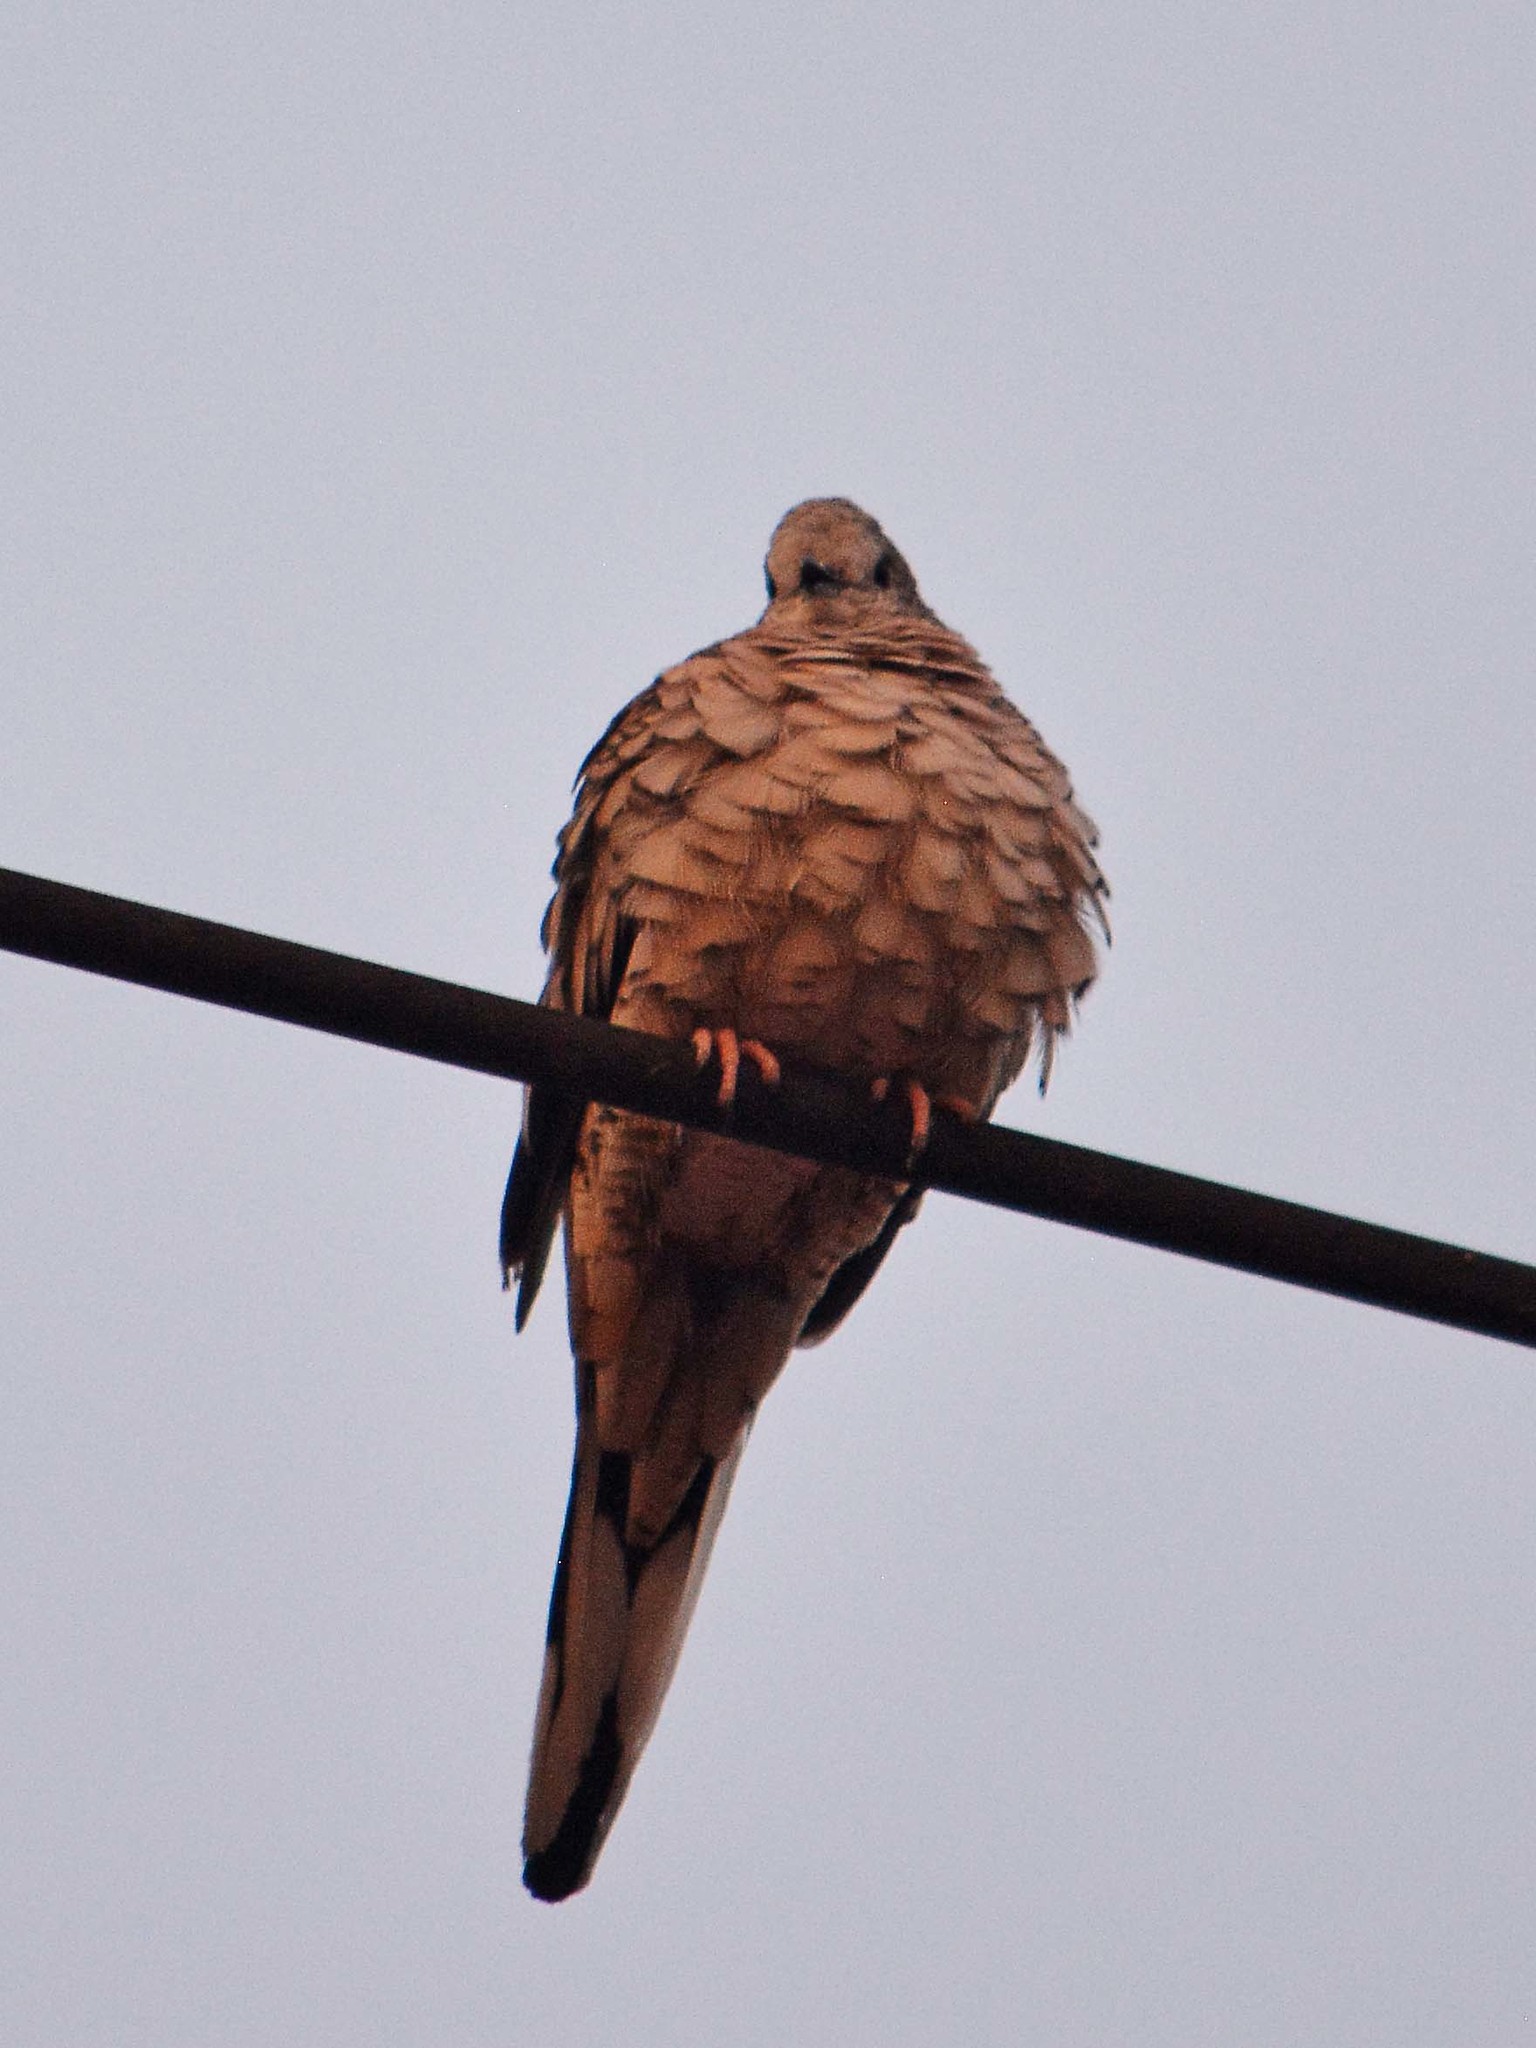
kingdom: Animalia
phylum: Chordata
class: Aves
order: Columbiformes
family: Columbidae
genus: Columbina
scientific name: Columbina inca
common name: Inca dove
